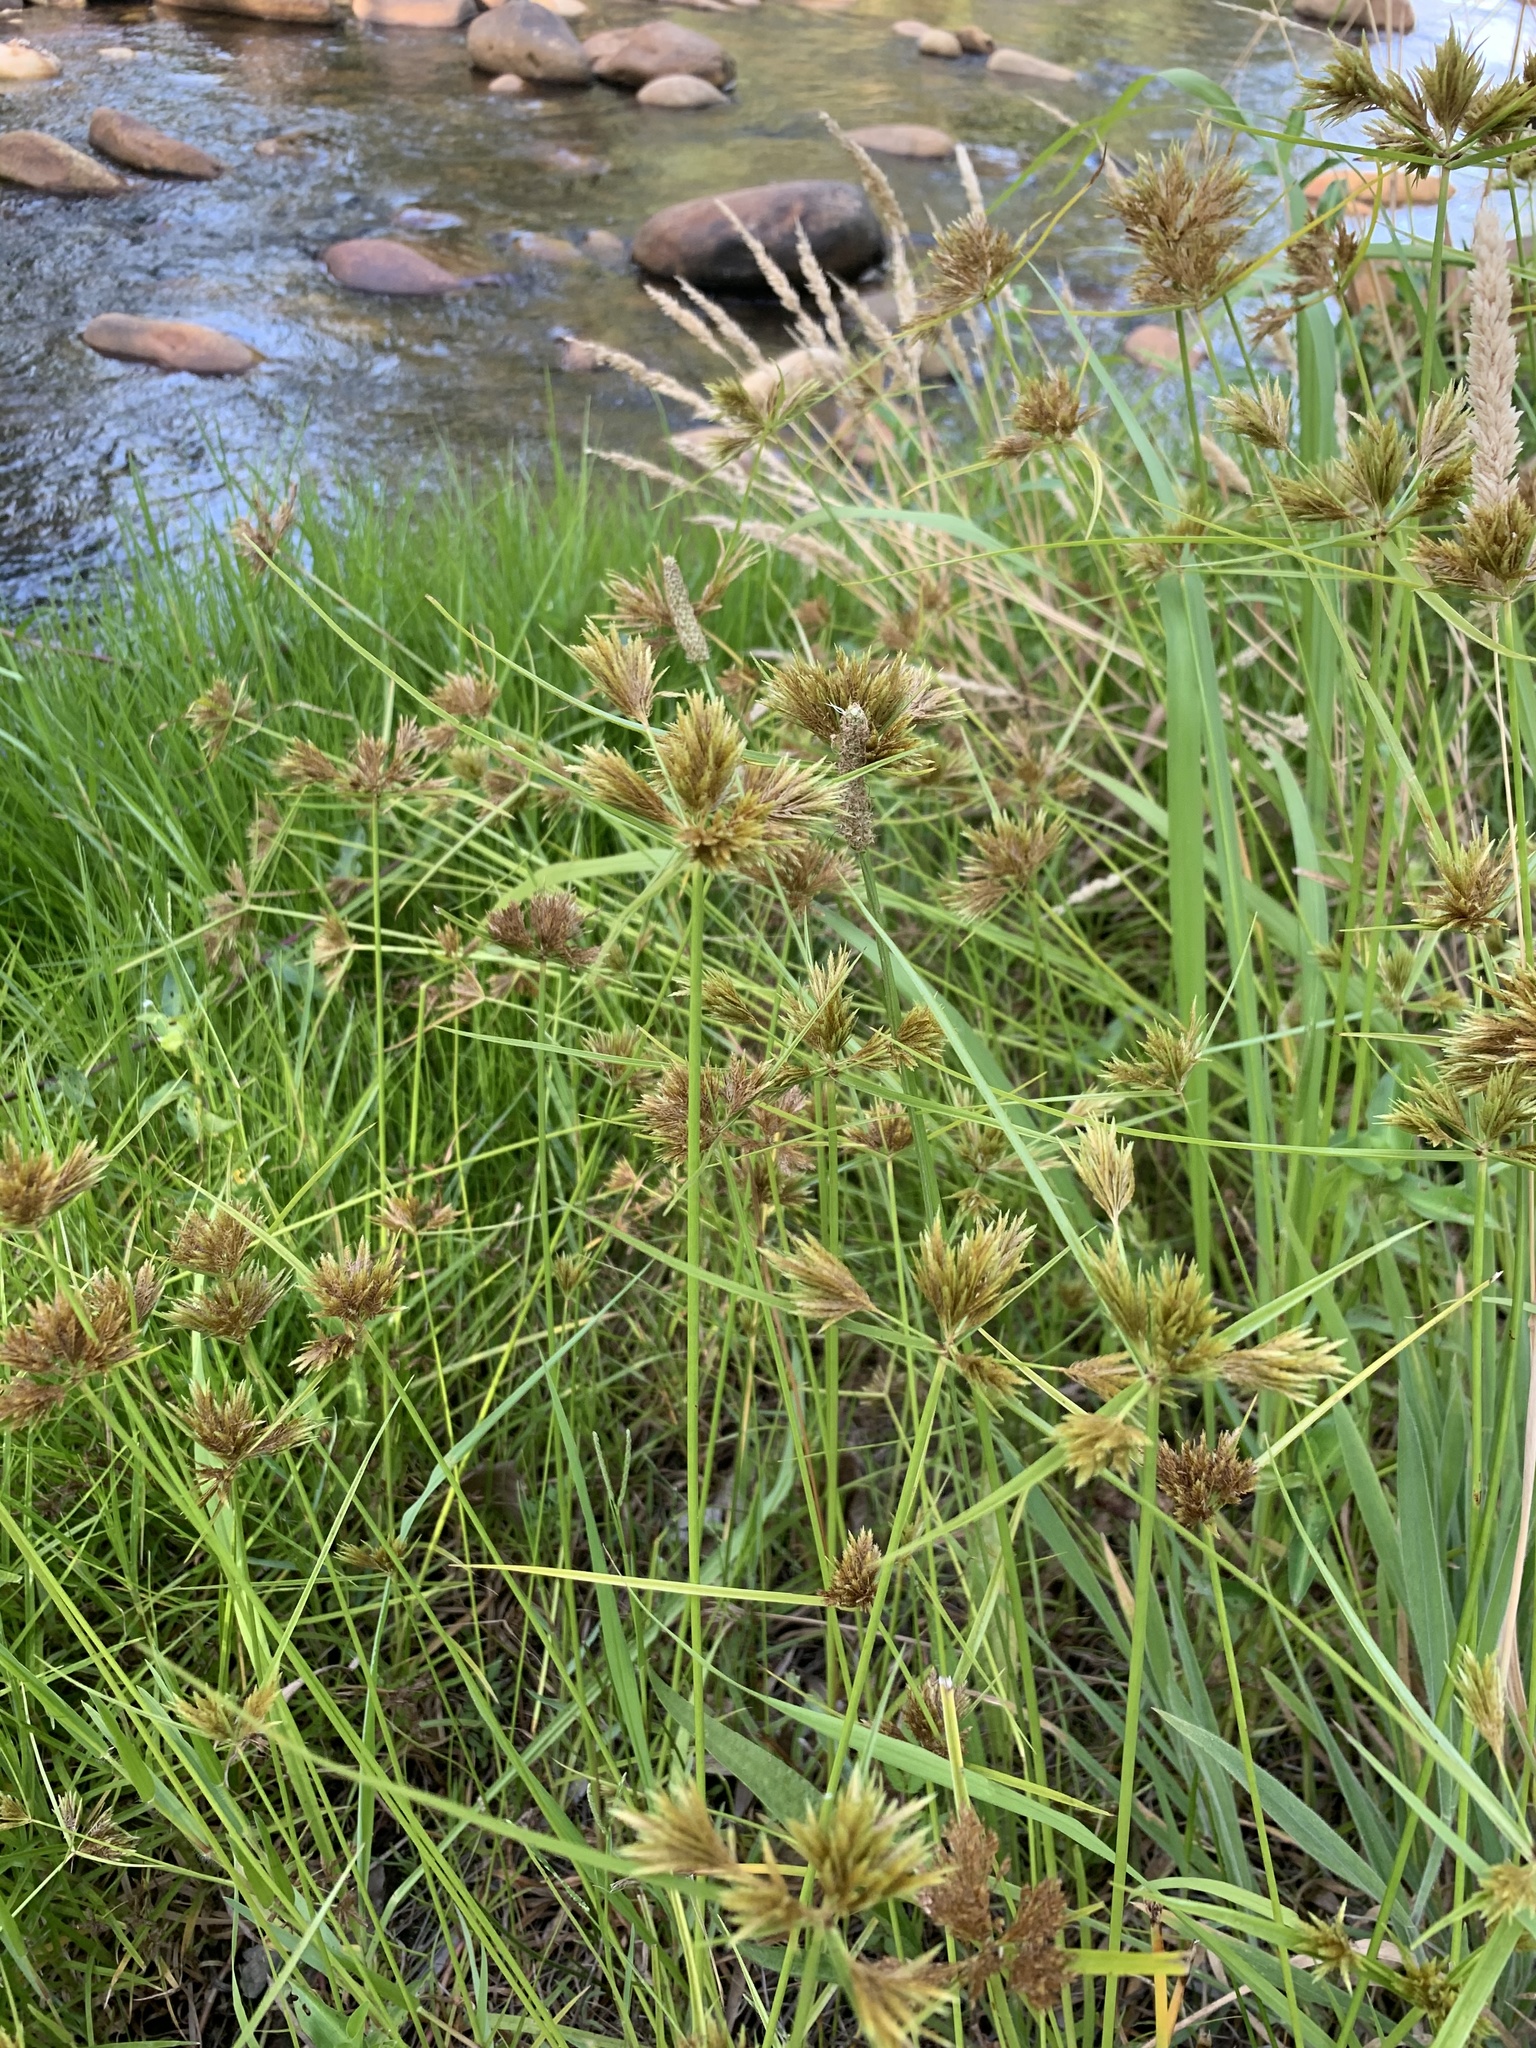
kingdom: Plantae
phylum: Tracheophyta
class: Liliopsida
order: Poales
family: Cyperaceae
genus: Cyperus
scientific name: Cyperus polystachyos
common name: Bunchy flat sedge
